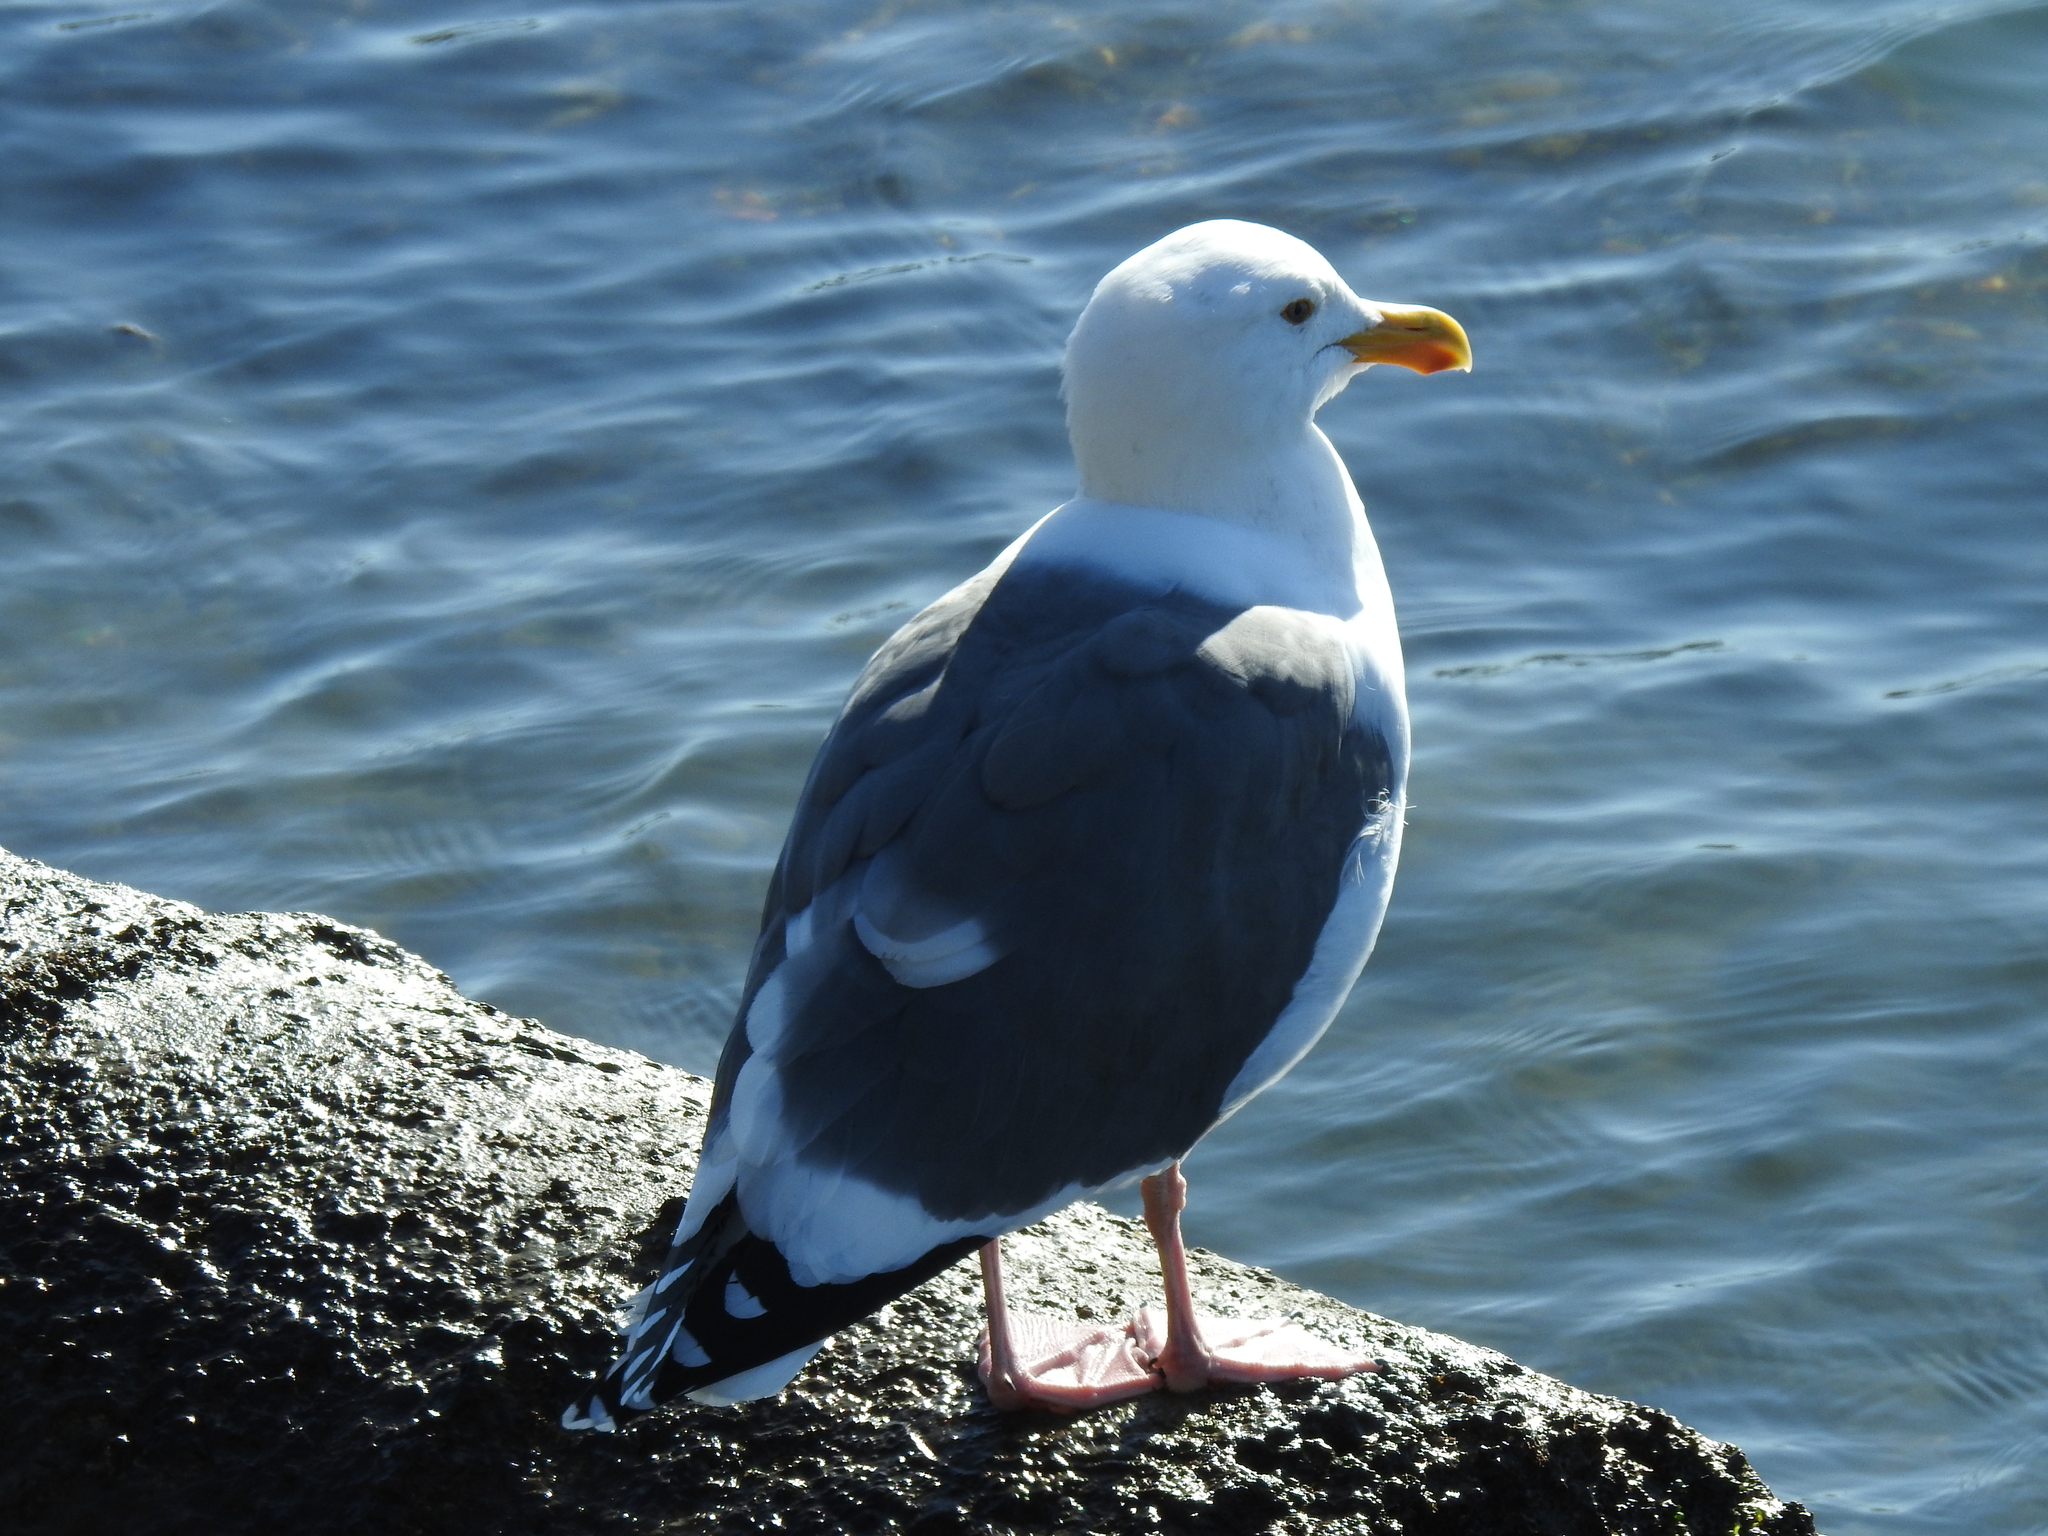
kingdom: Animalia
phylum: Chordata
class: Aves
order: Charadriiformes
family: Laridae
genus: Larus
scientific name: Larus occidentalis
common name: Western gull
